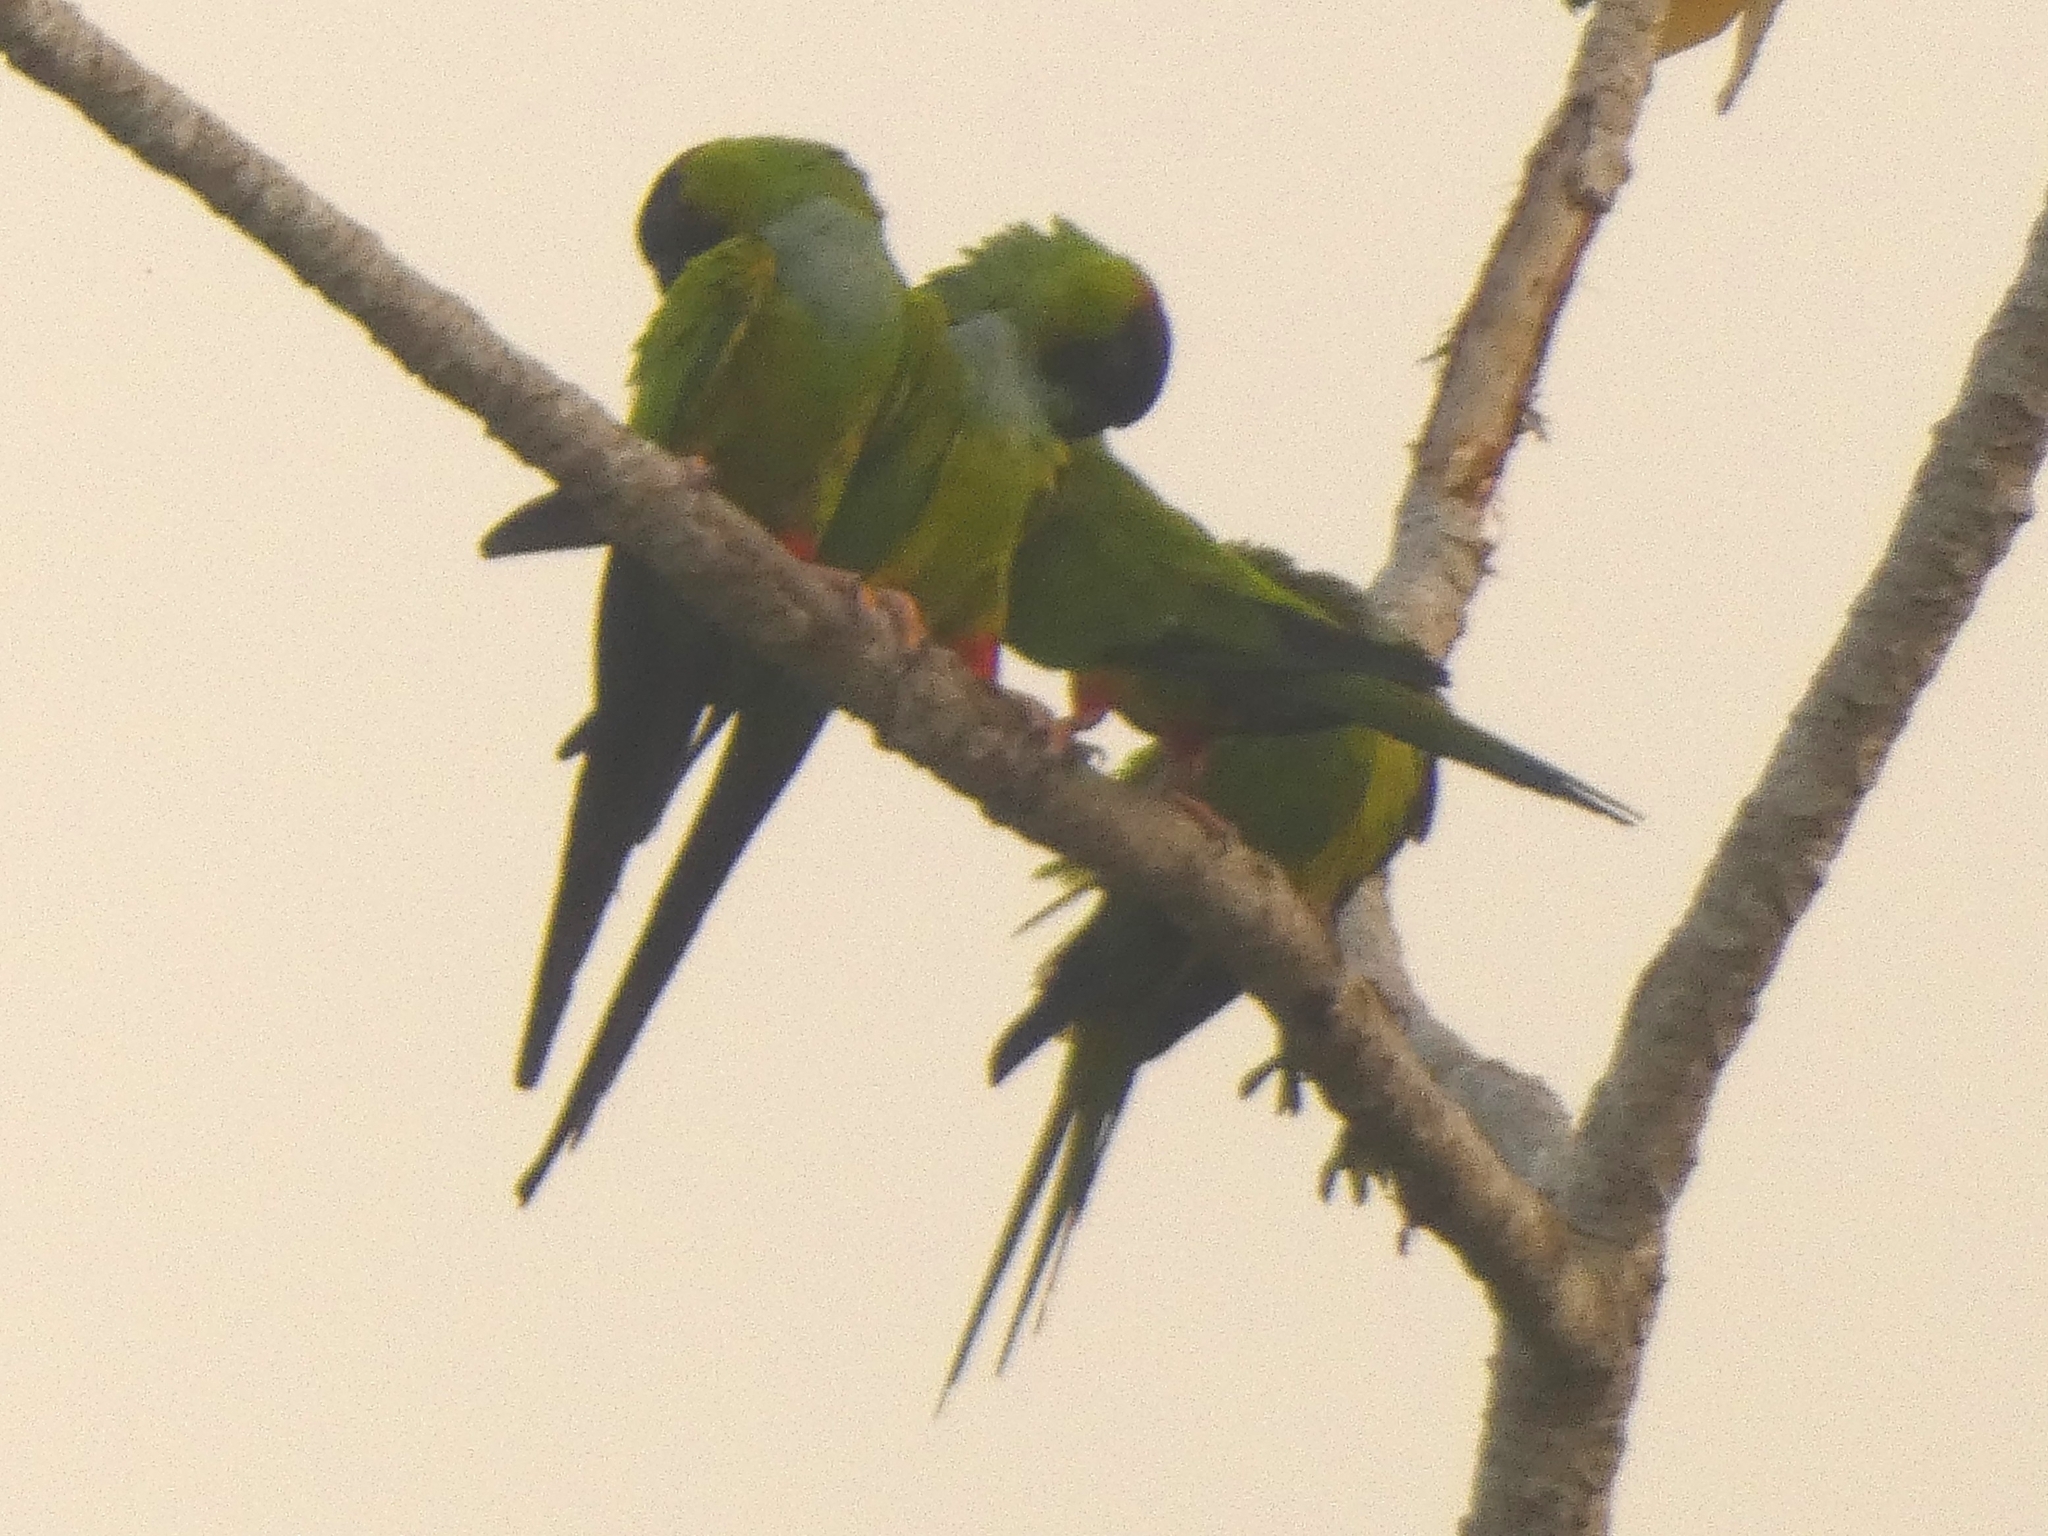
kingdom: Animalia
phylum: Chordata
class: Aves
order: Psittaciformes
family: Psittacidae
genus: Nandayus
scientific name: Nandayus nenday
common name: Nanday parakeet
